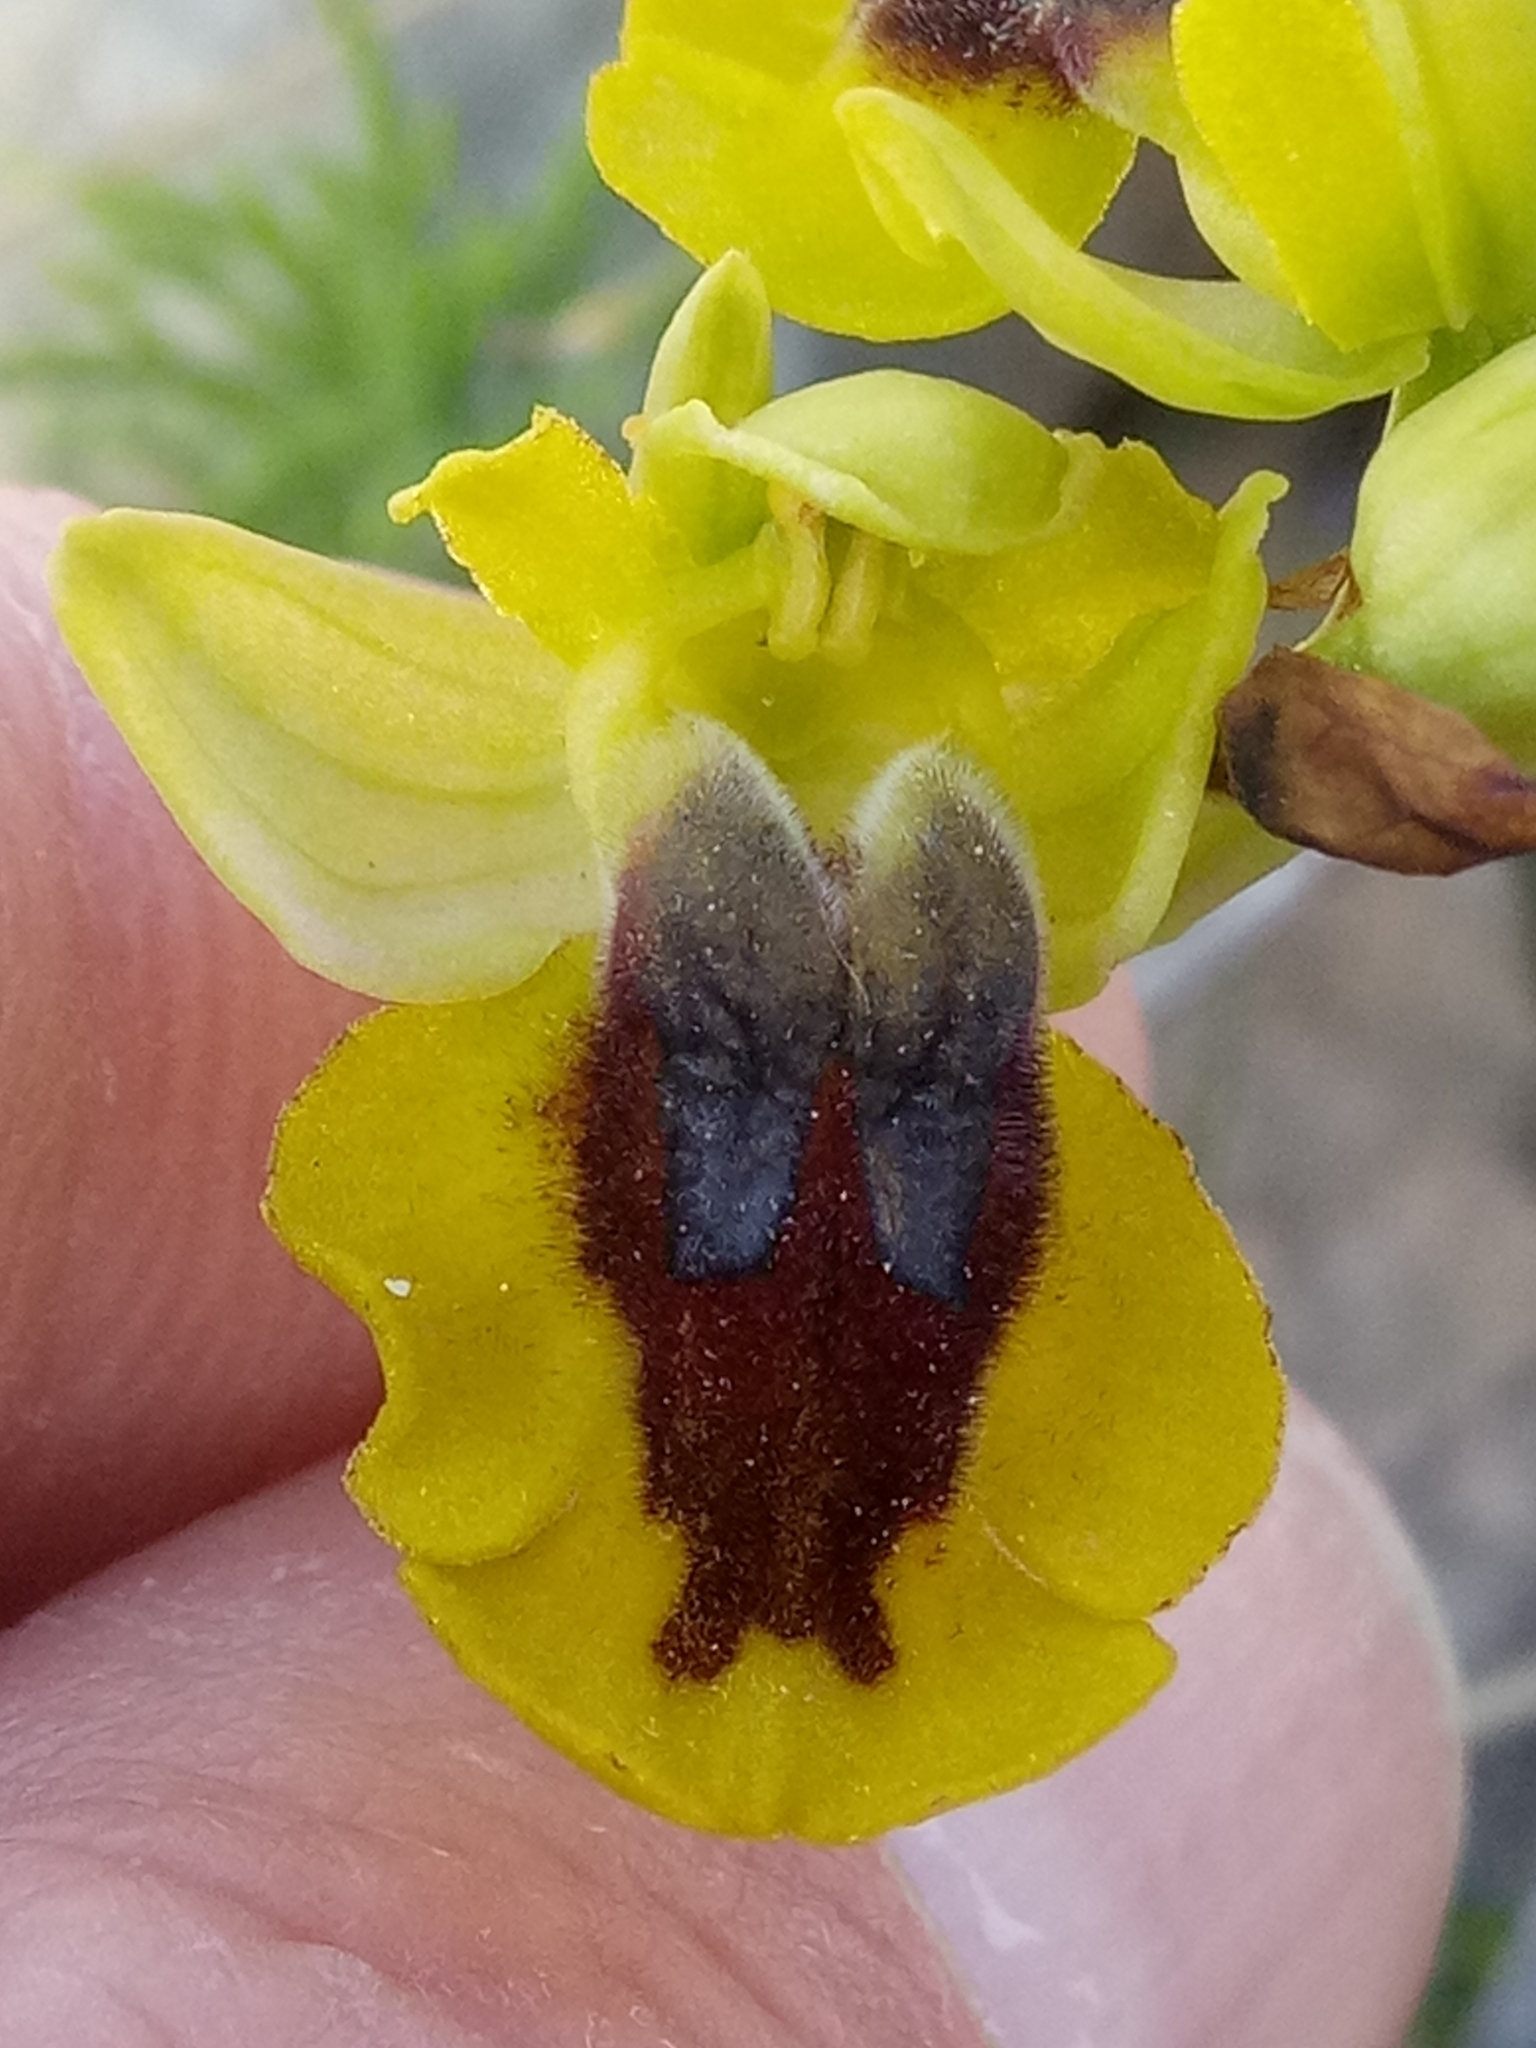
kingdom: Plantae
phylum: Tracheophyta
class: Liliopsida
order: Asparagales
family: Orchidaceae
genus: Ophrys
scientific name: Ophrys lutea
